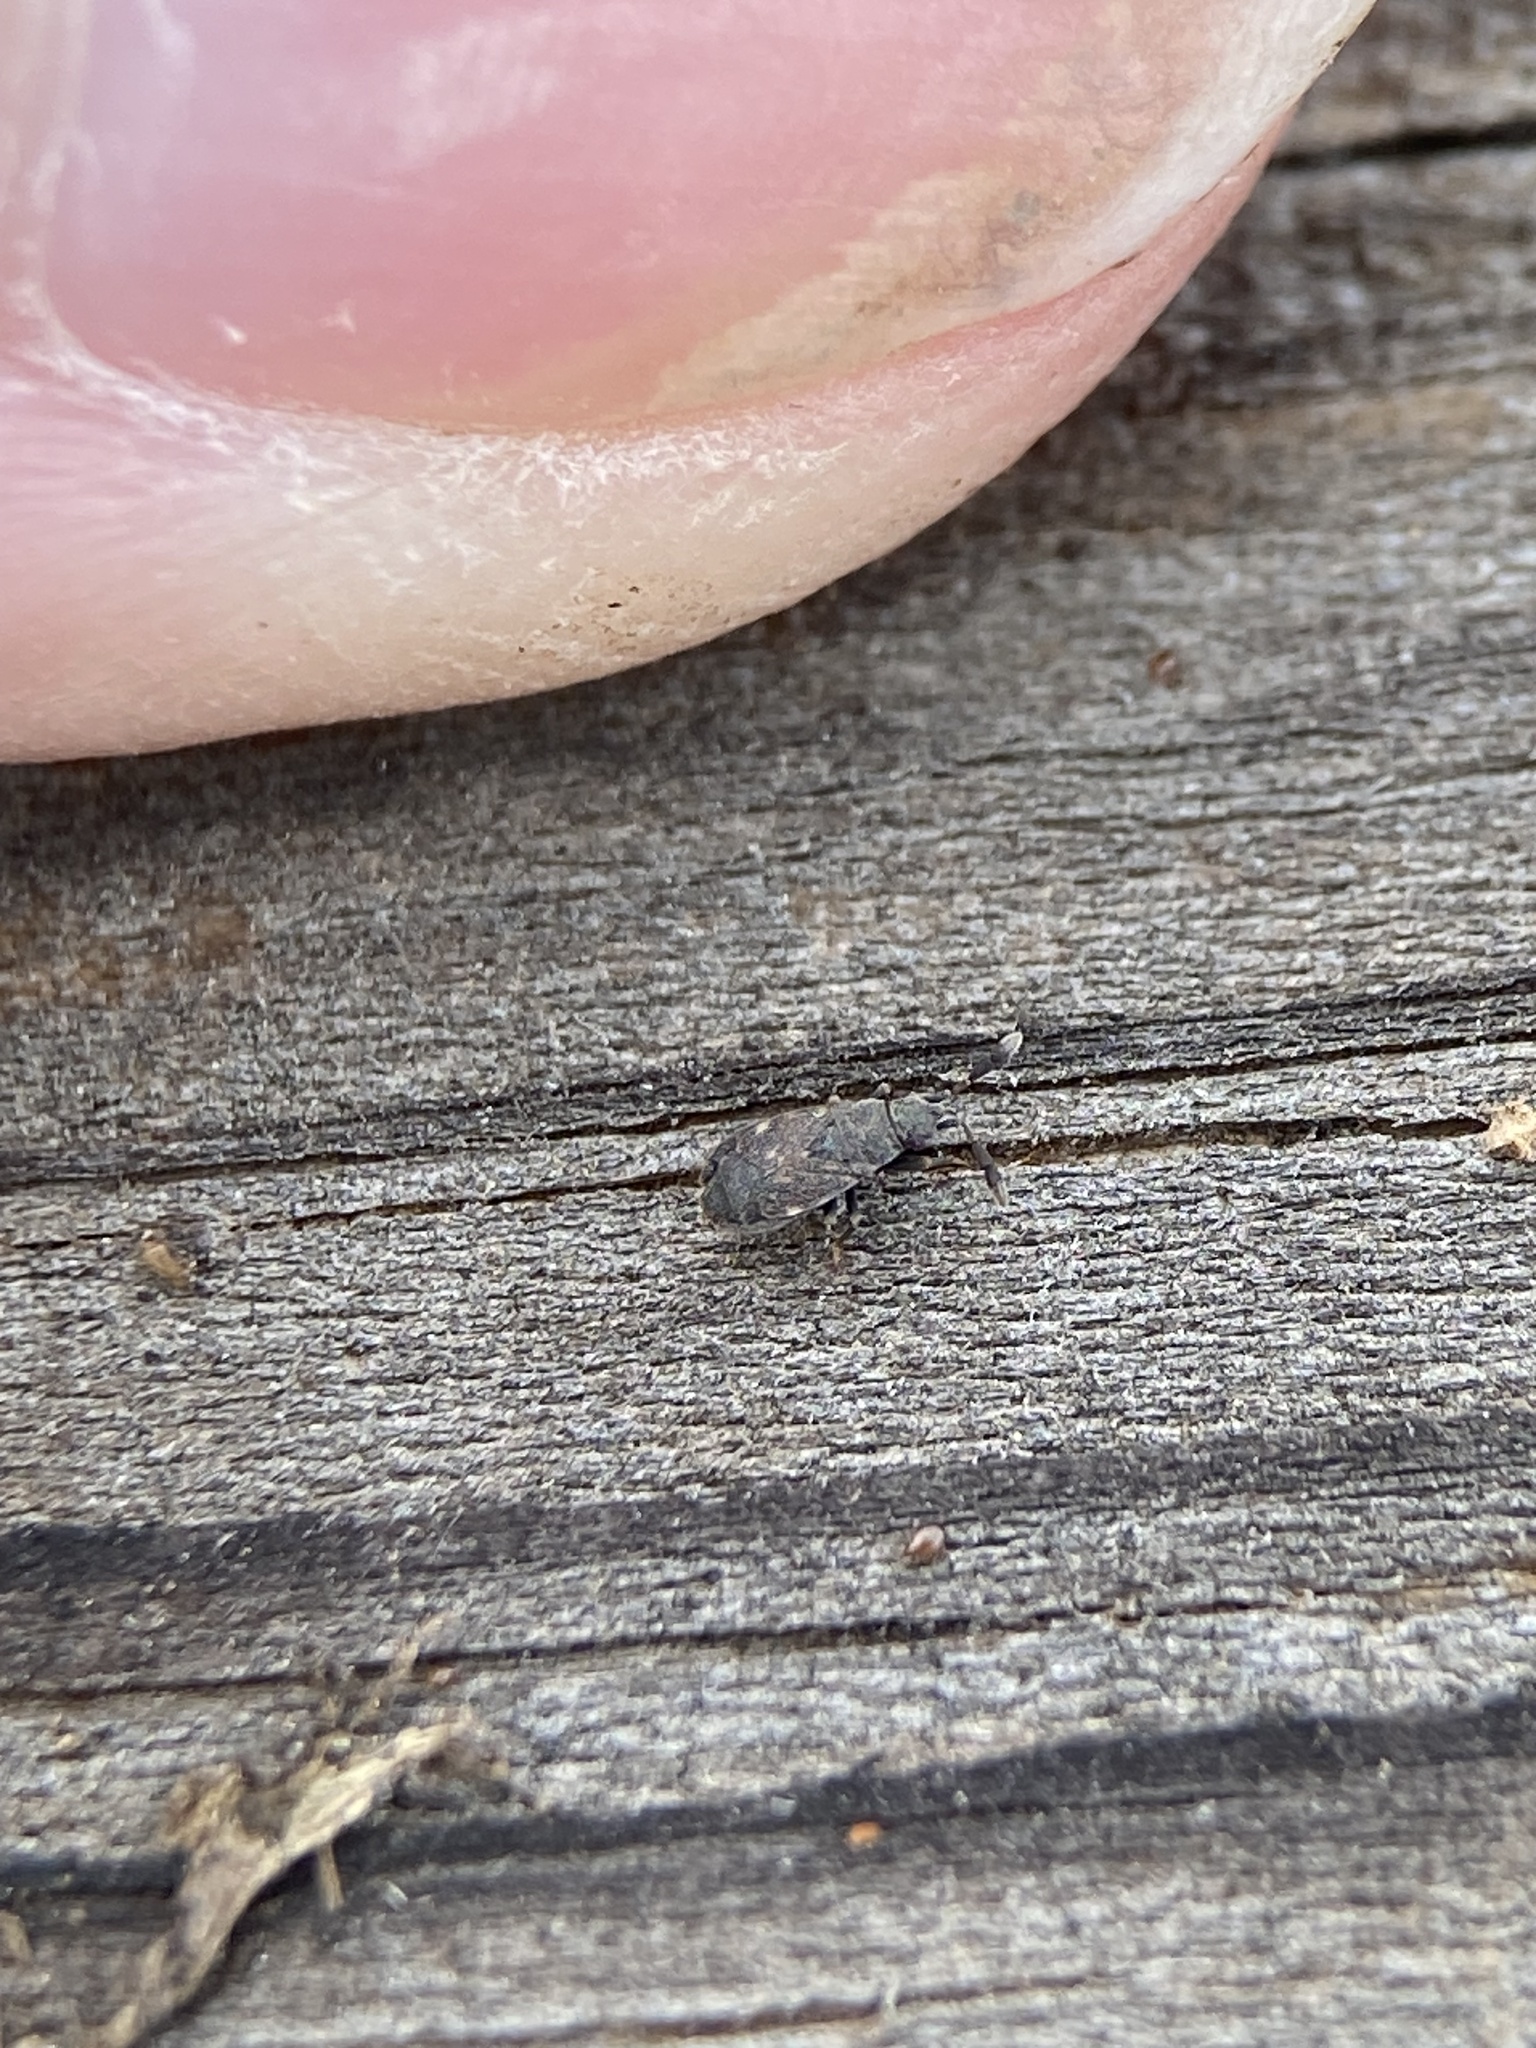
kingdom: Animalia
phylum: Arthropoda
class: Insecta
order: Hemiptera
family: Rhyparochromidae
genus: Sisamnes
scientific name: Sisamnes claviger
